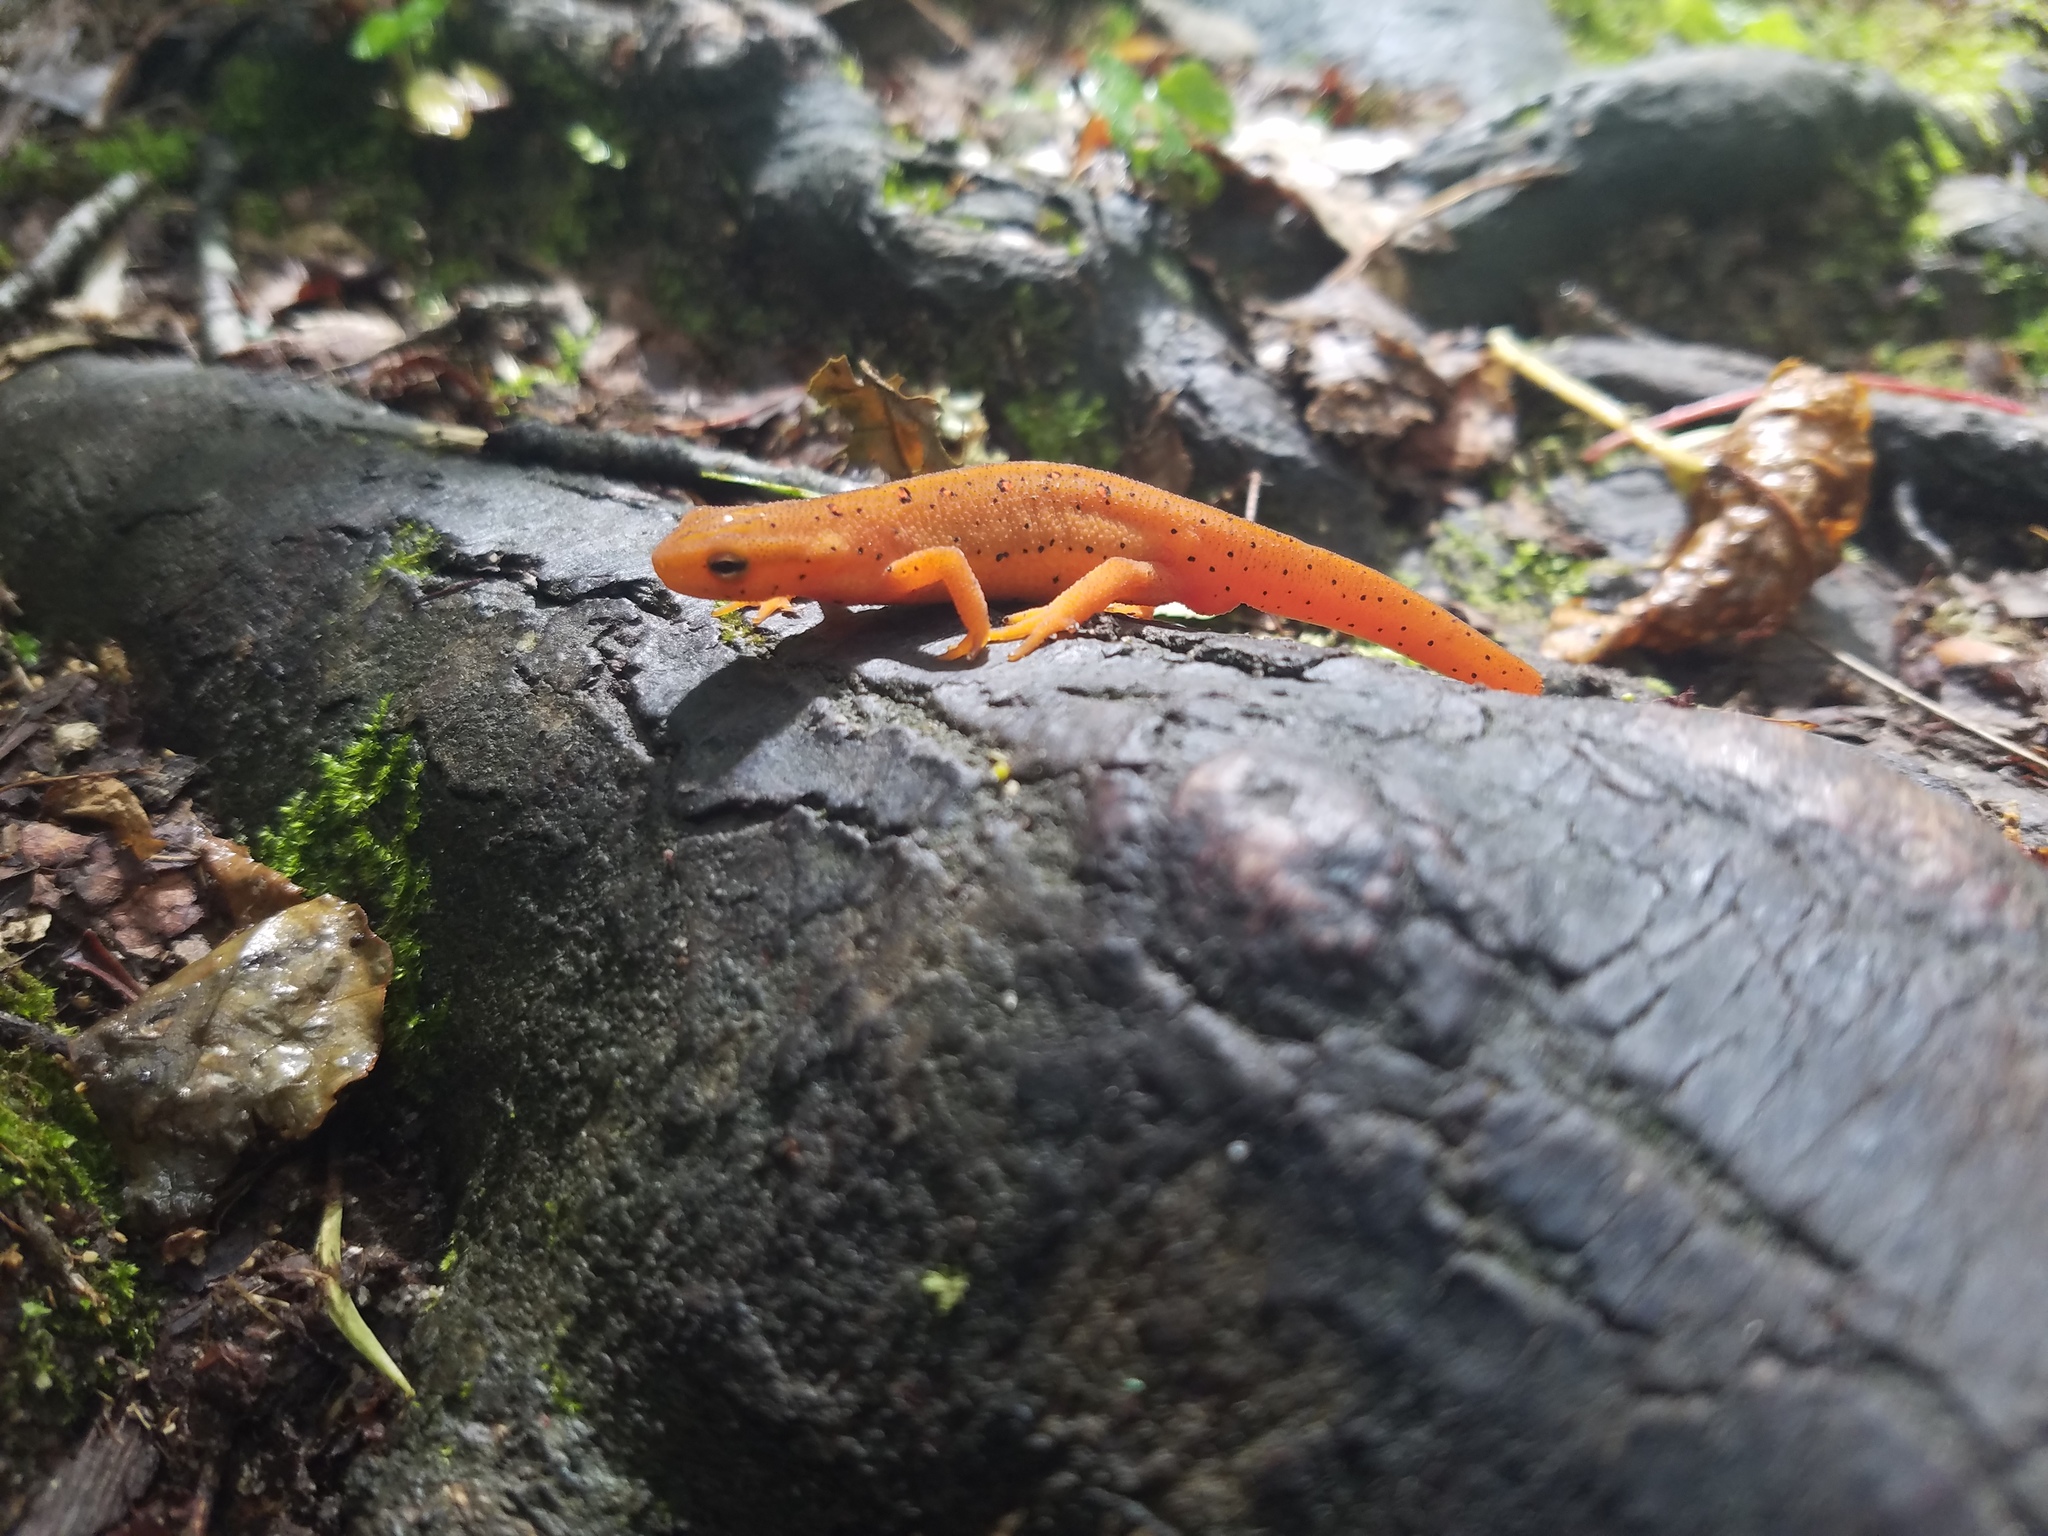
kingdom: Animalia
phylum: Chordata
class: Amphibia
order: Caudata
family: Salamandridae
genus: Notophthalmus
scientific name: Notophthalmus viridescens
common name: Eastern newt
